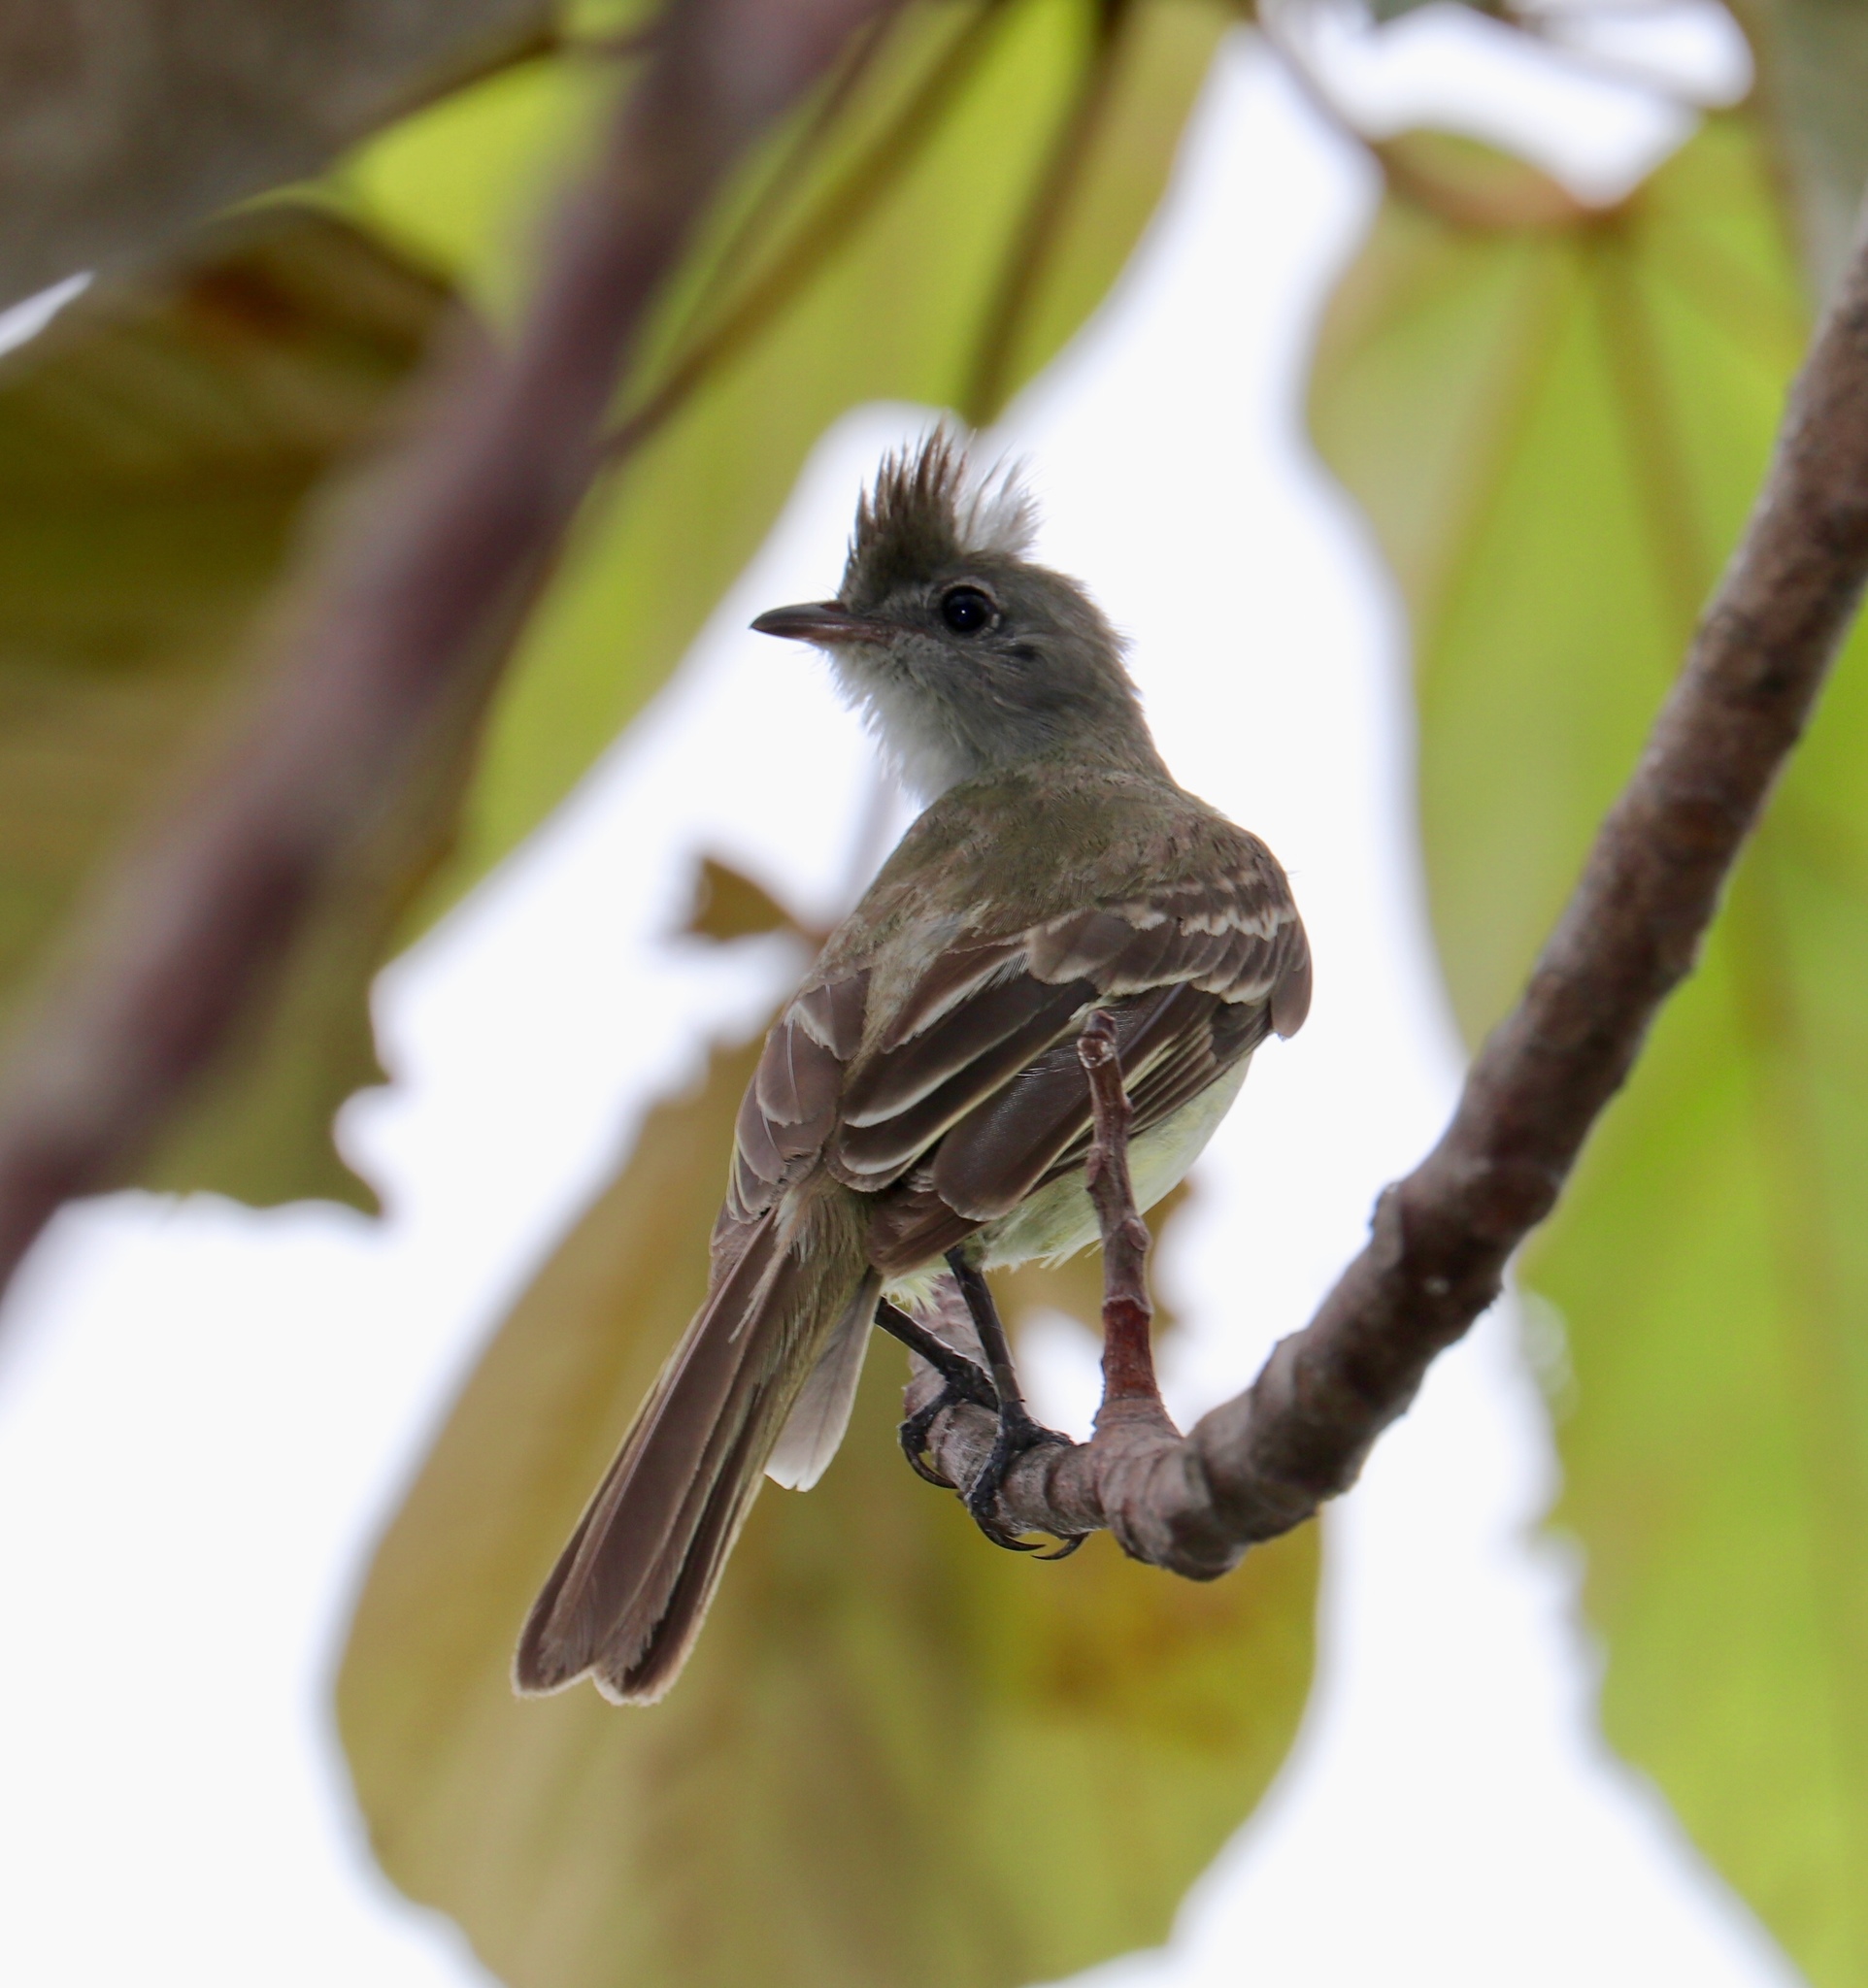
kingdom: Animalia
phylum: Chordata
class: Aves
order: Passeriformes
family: Tyrannidae
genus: Elaenia
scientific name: Elaenia flavogaster
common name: Yellow-bellied elaenia
